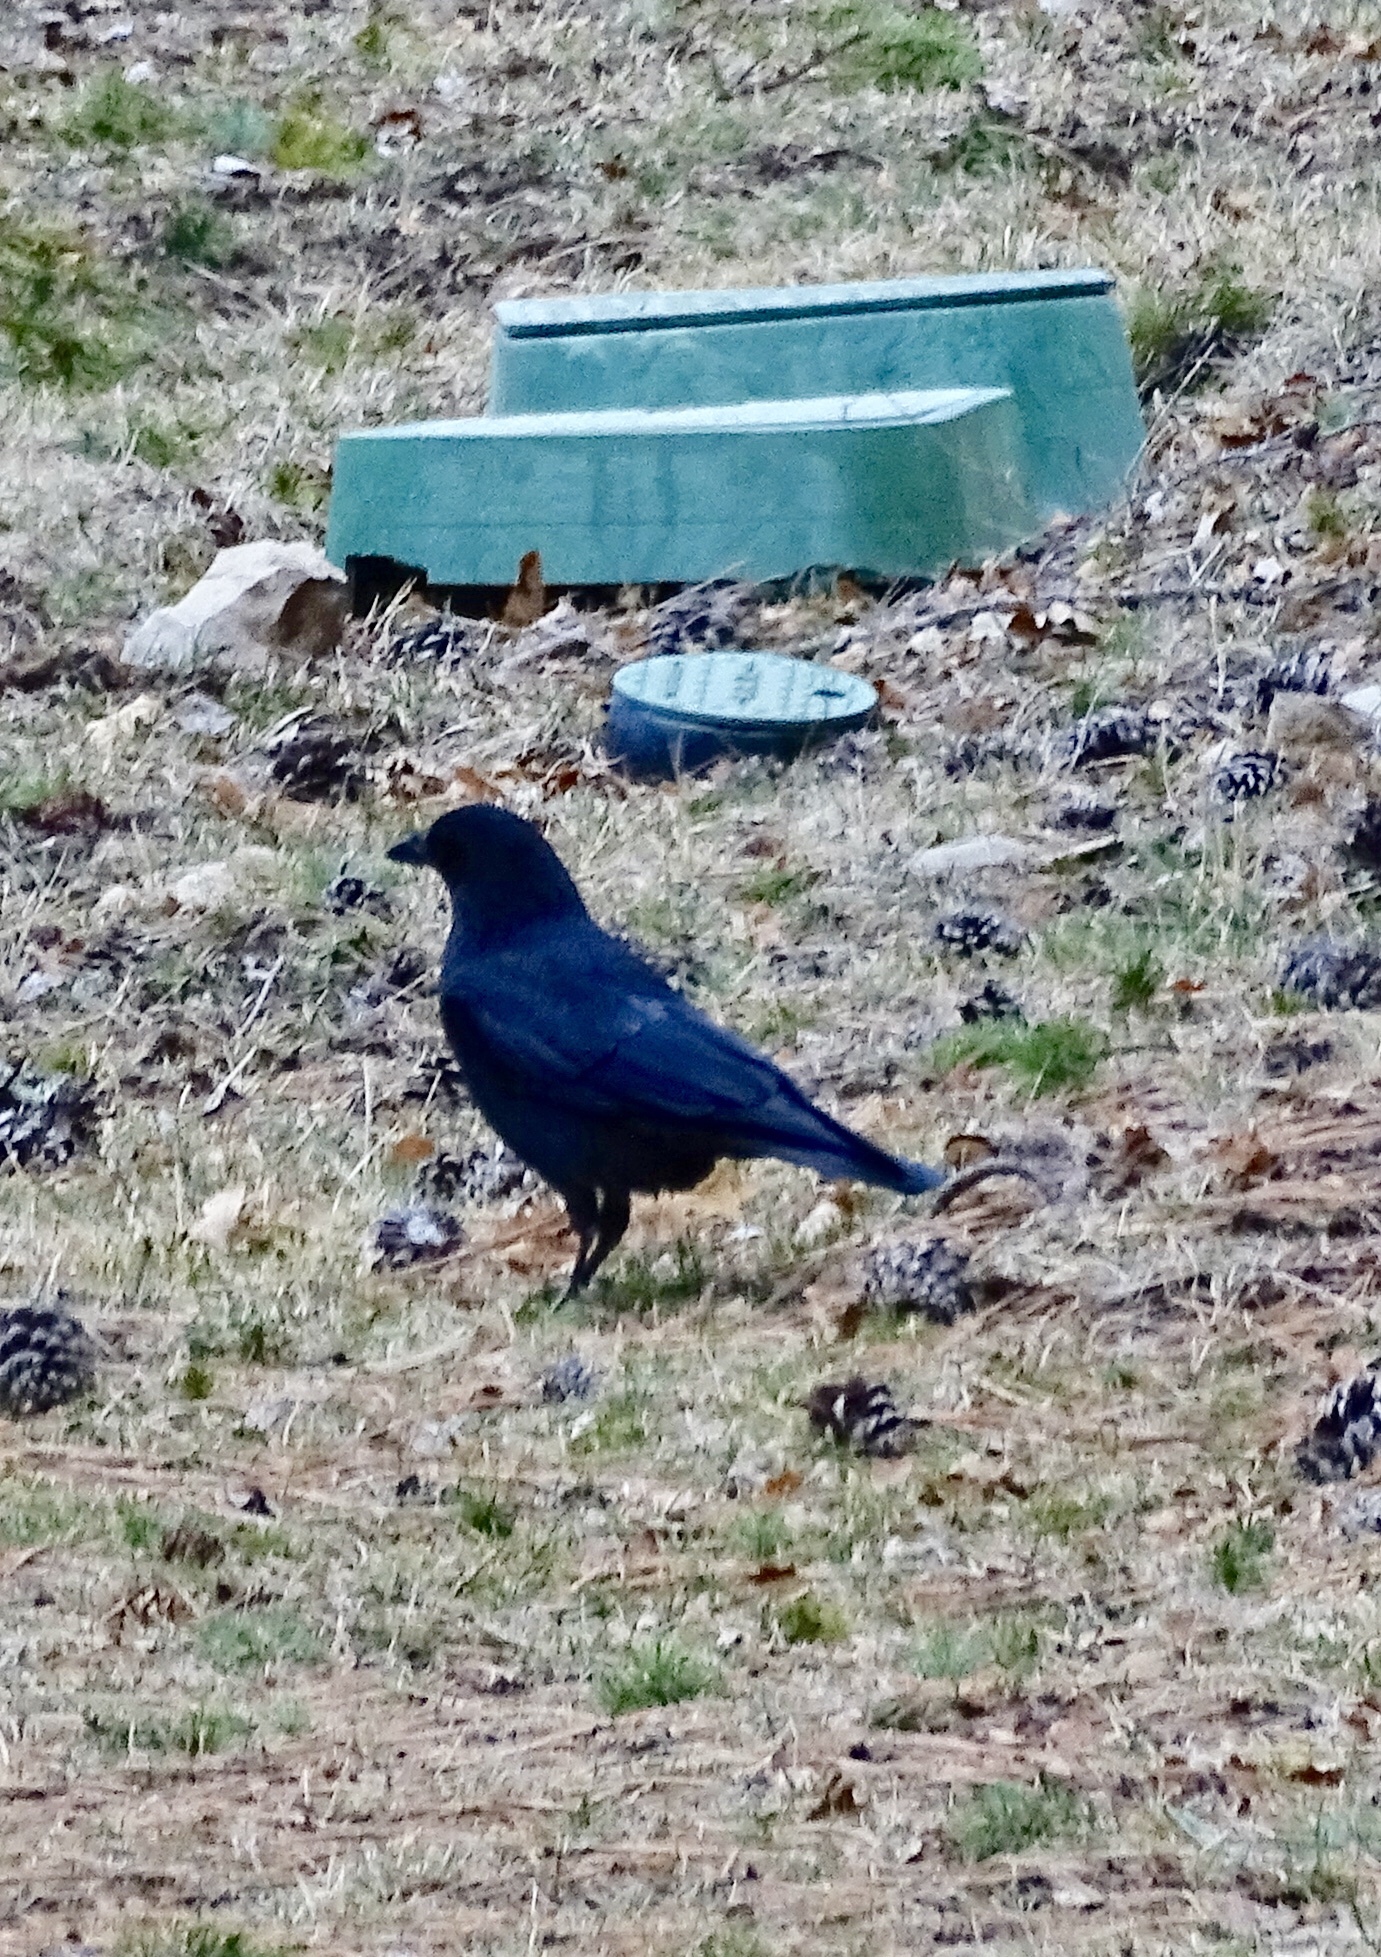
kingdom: Animalia
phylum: Chordata
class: Aves
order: Passeriformes
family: Corvidae
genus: Corvus
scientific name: Corvus brachyrhynchos
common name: American crow
